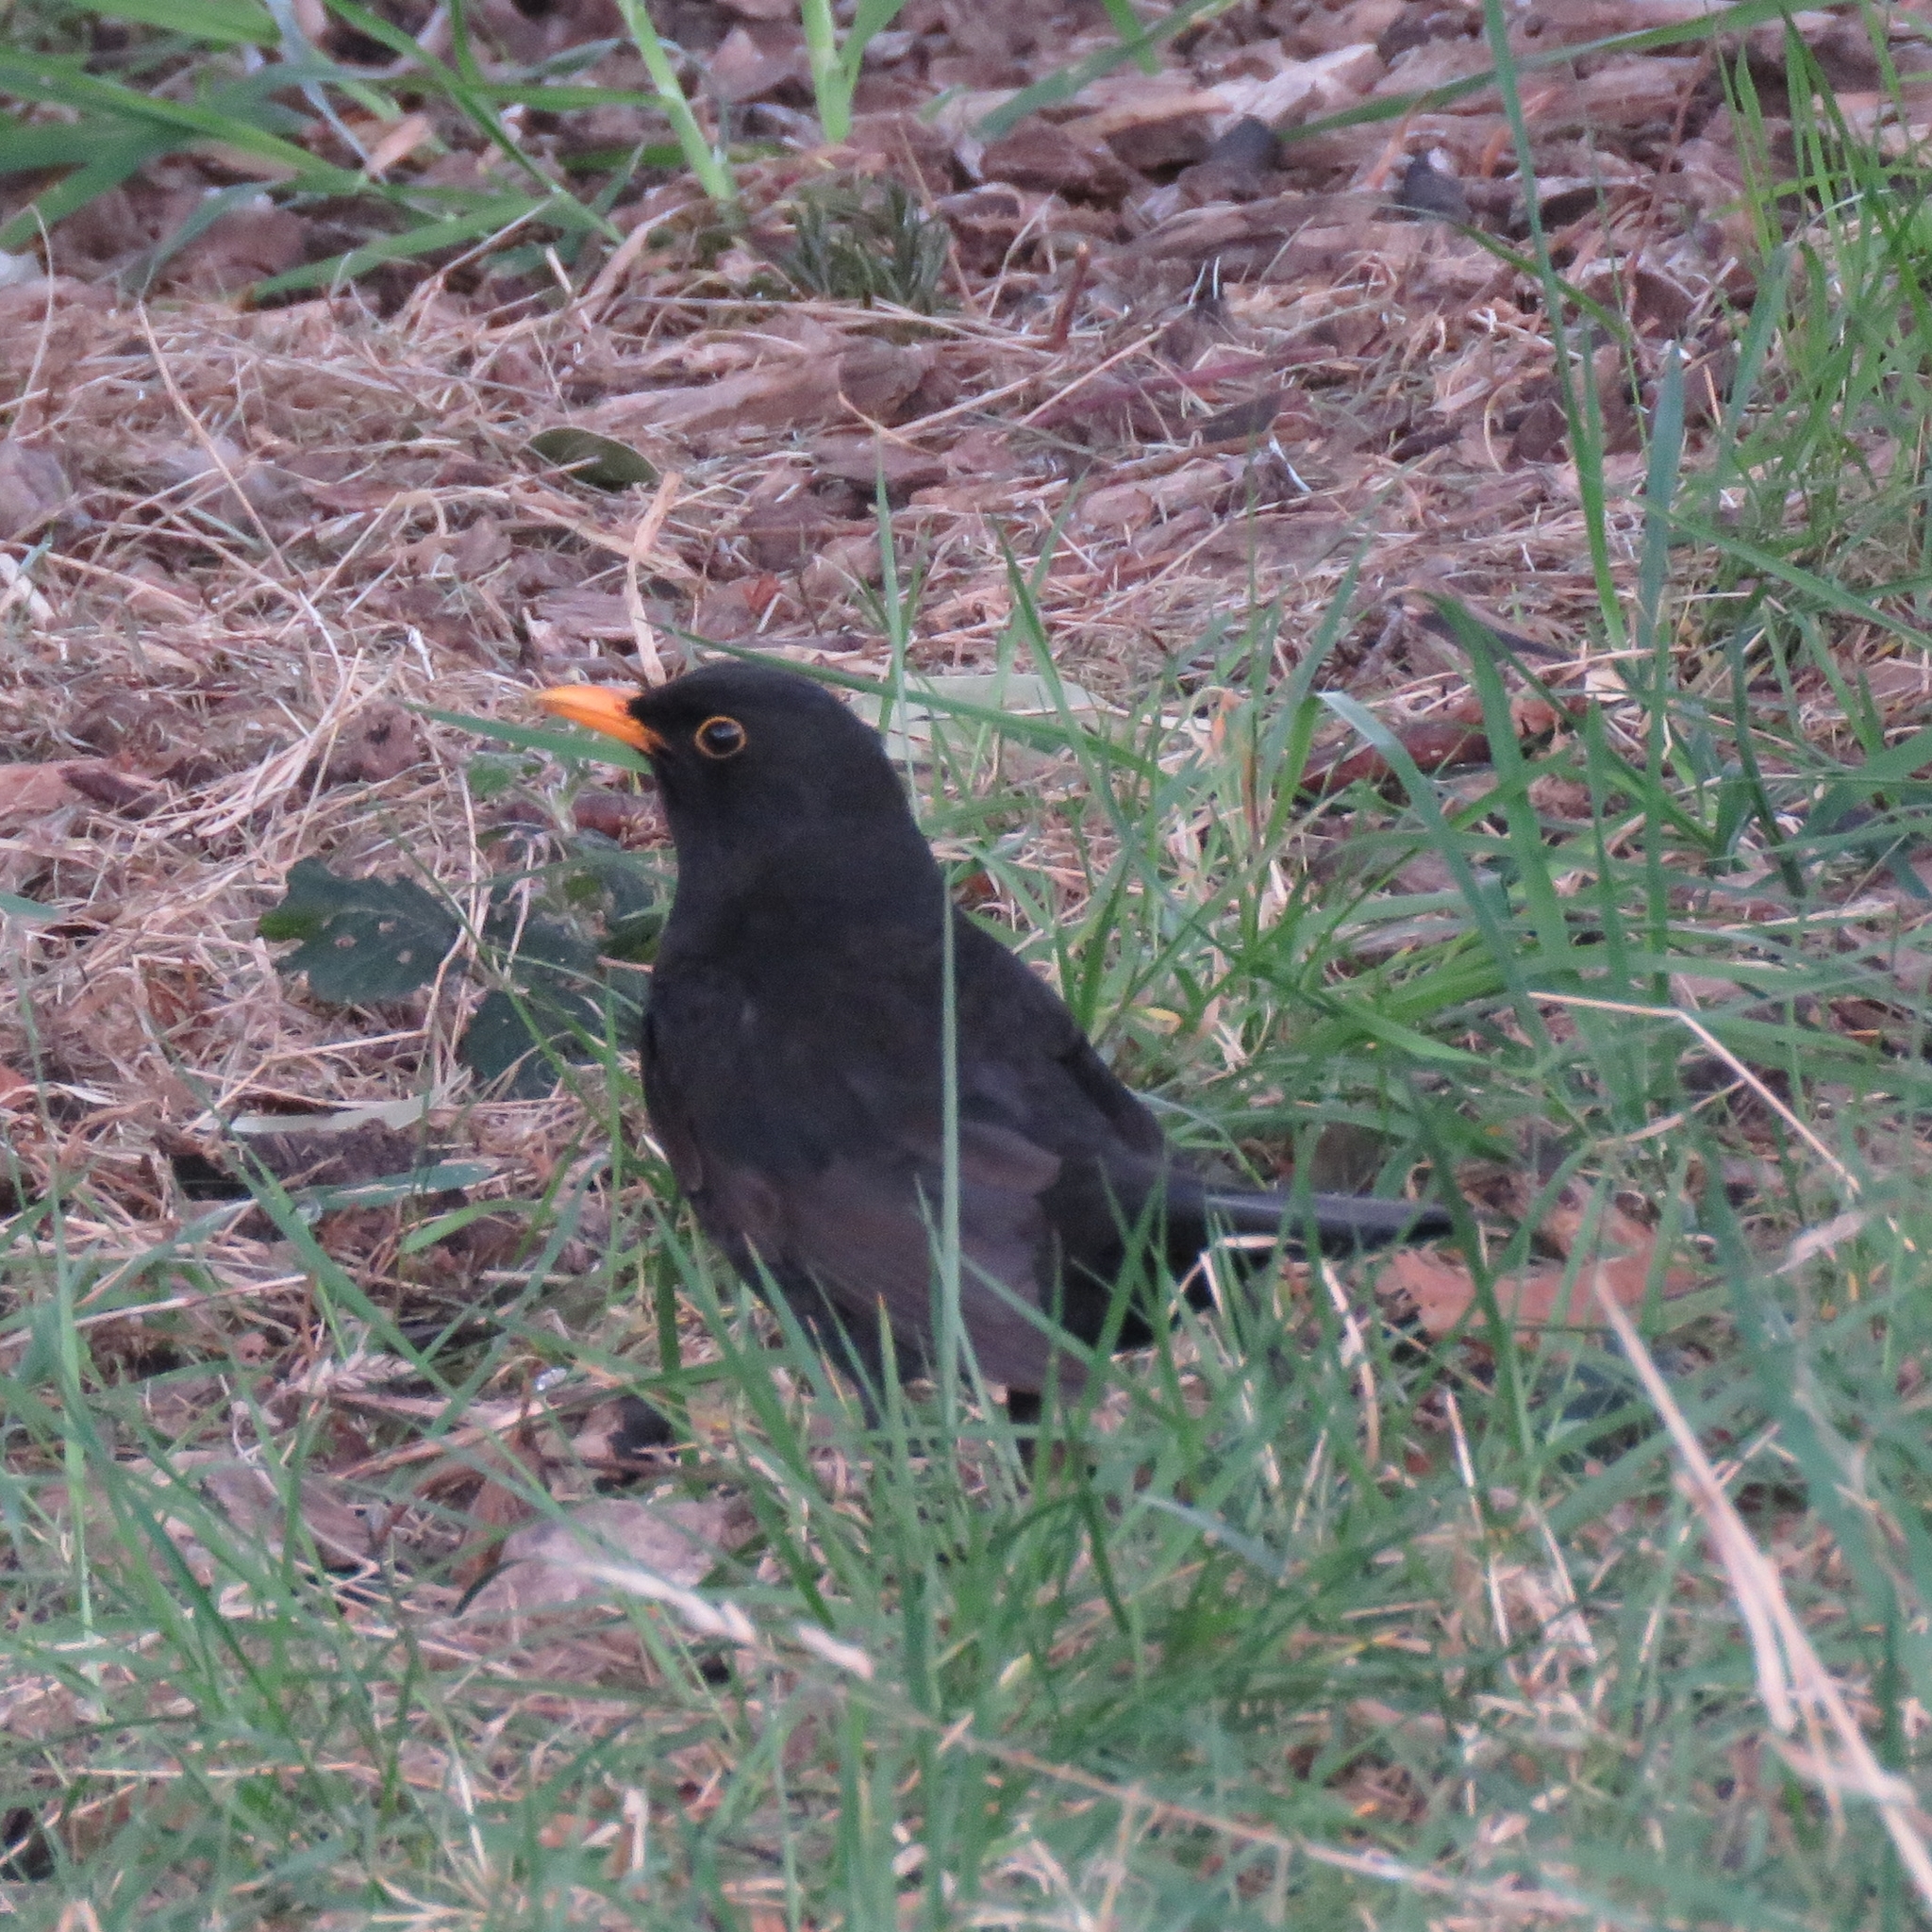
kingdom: Animalia
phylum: Chordata
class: Aves
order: Passeriformes
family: Turdidae
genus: Turdus
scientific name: Turdus merula
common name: Common blackbird
